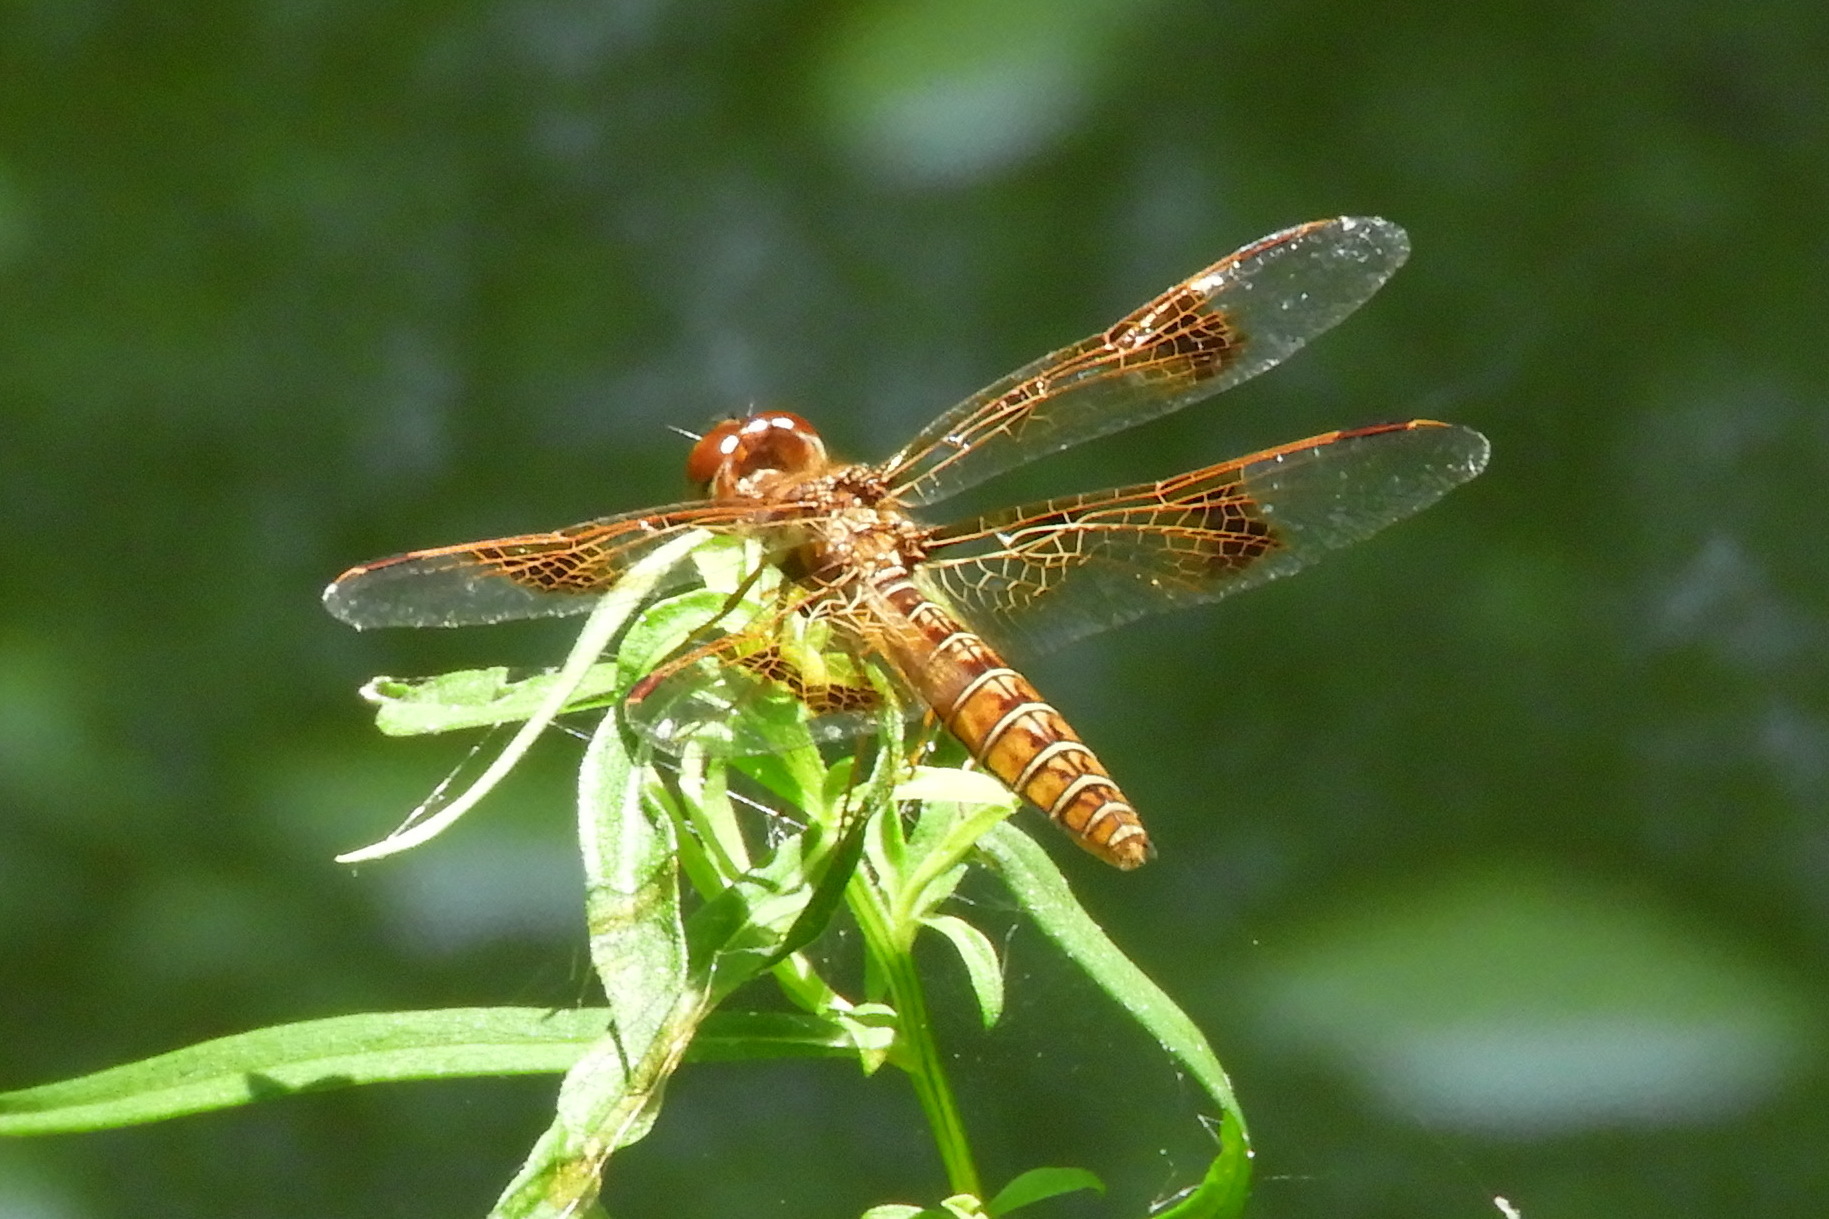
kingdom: Animalia
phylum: Arthropoda
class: Insecta
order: Odonata
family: Libellulidae
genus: Perithemis
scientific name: Perithemis tenera
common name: Eastern amberwing
